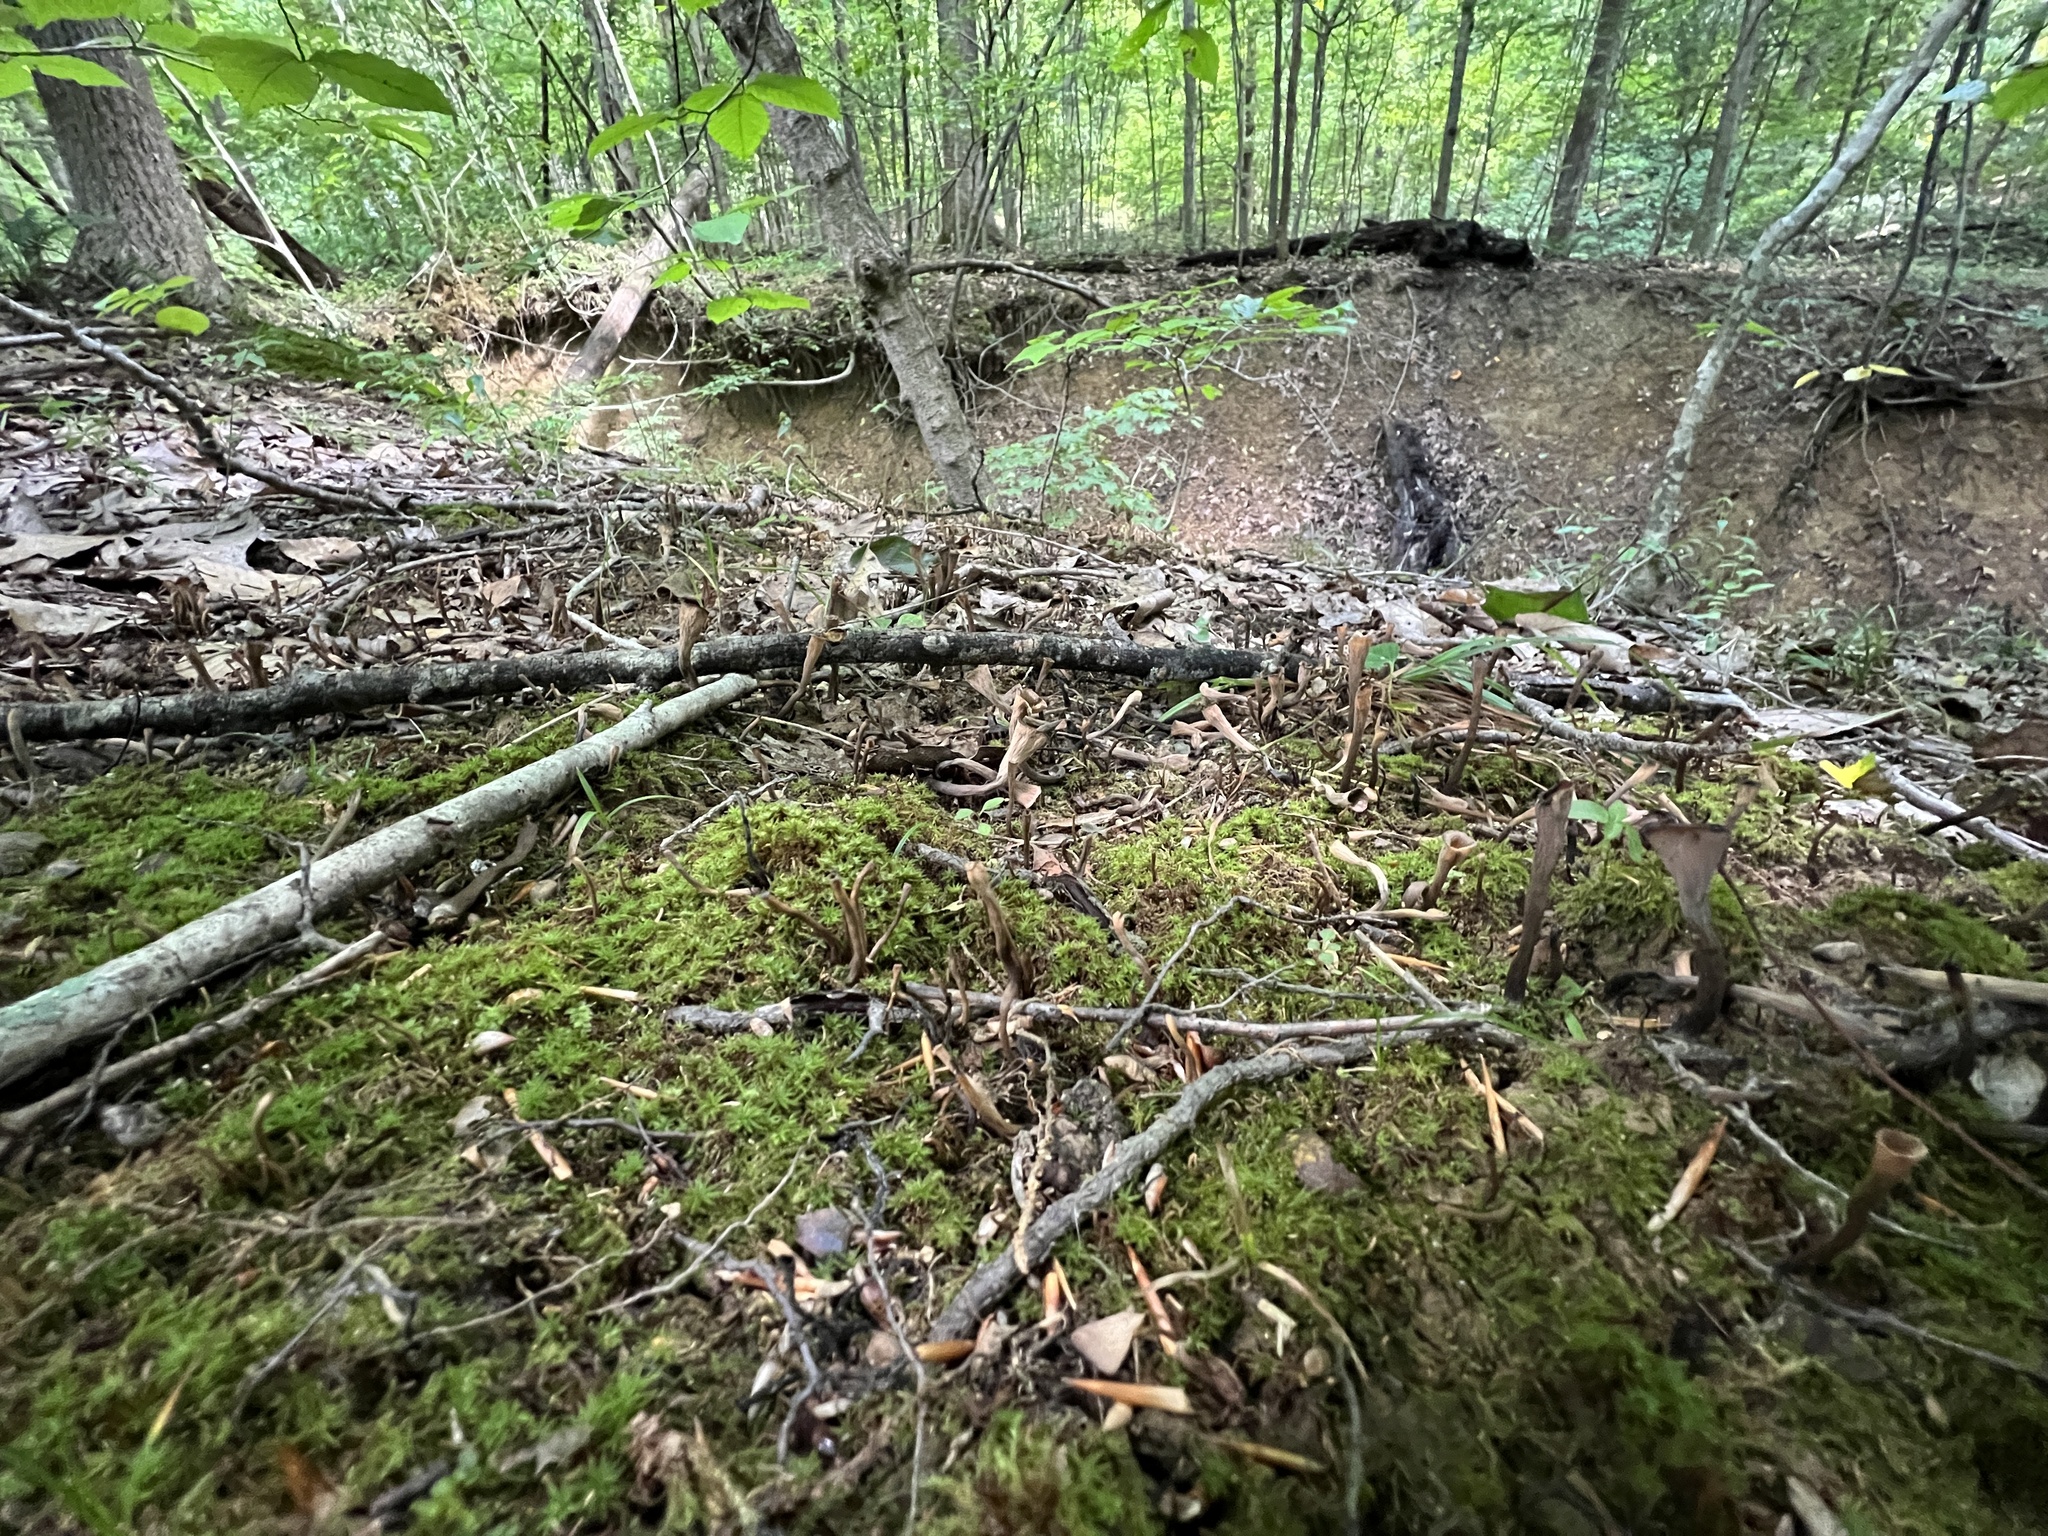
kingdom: Fungi
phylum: Basidiomycota
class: Agaricomycetes
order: Cantharellales
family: Hydnaceae
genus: Craterellus
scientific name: Craterellus cornucopioides
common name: Horn of plenty
